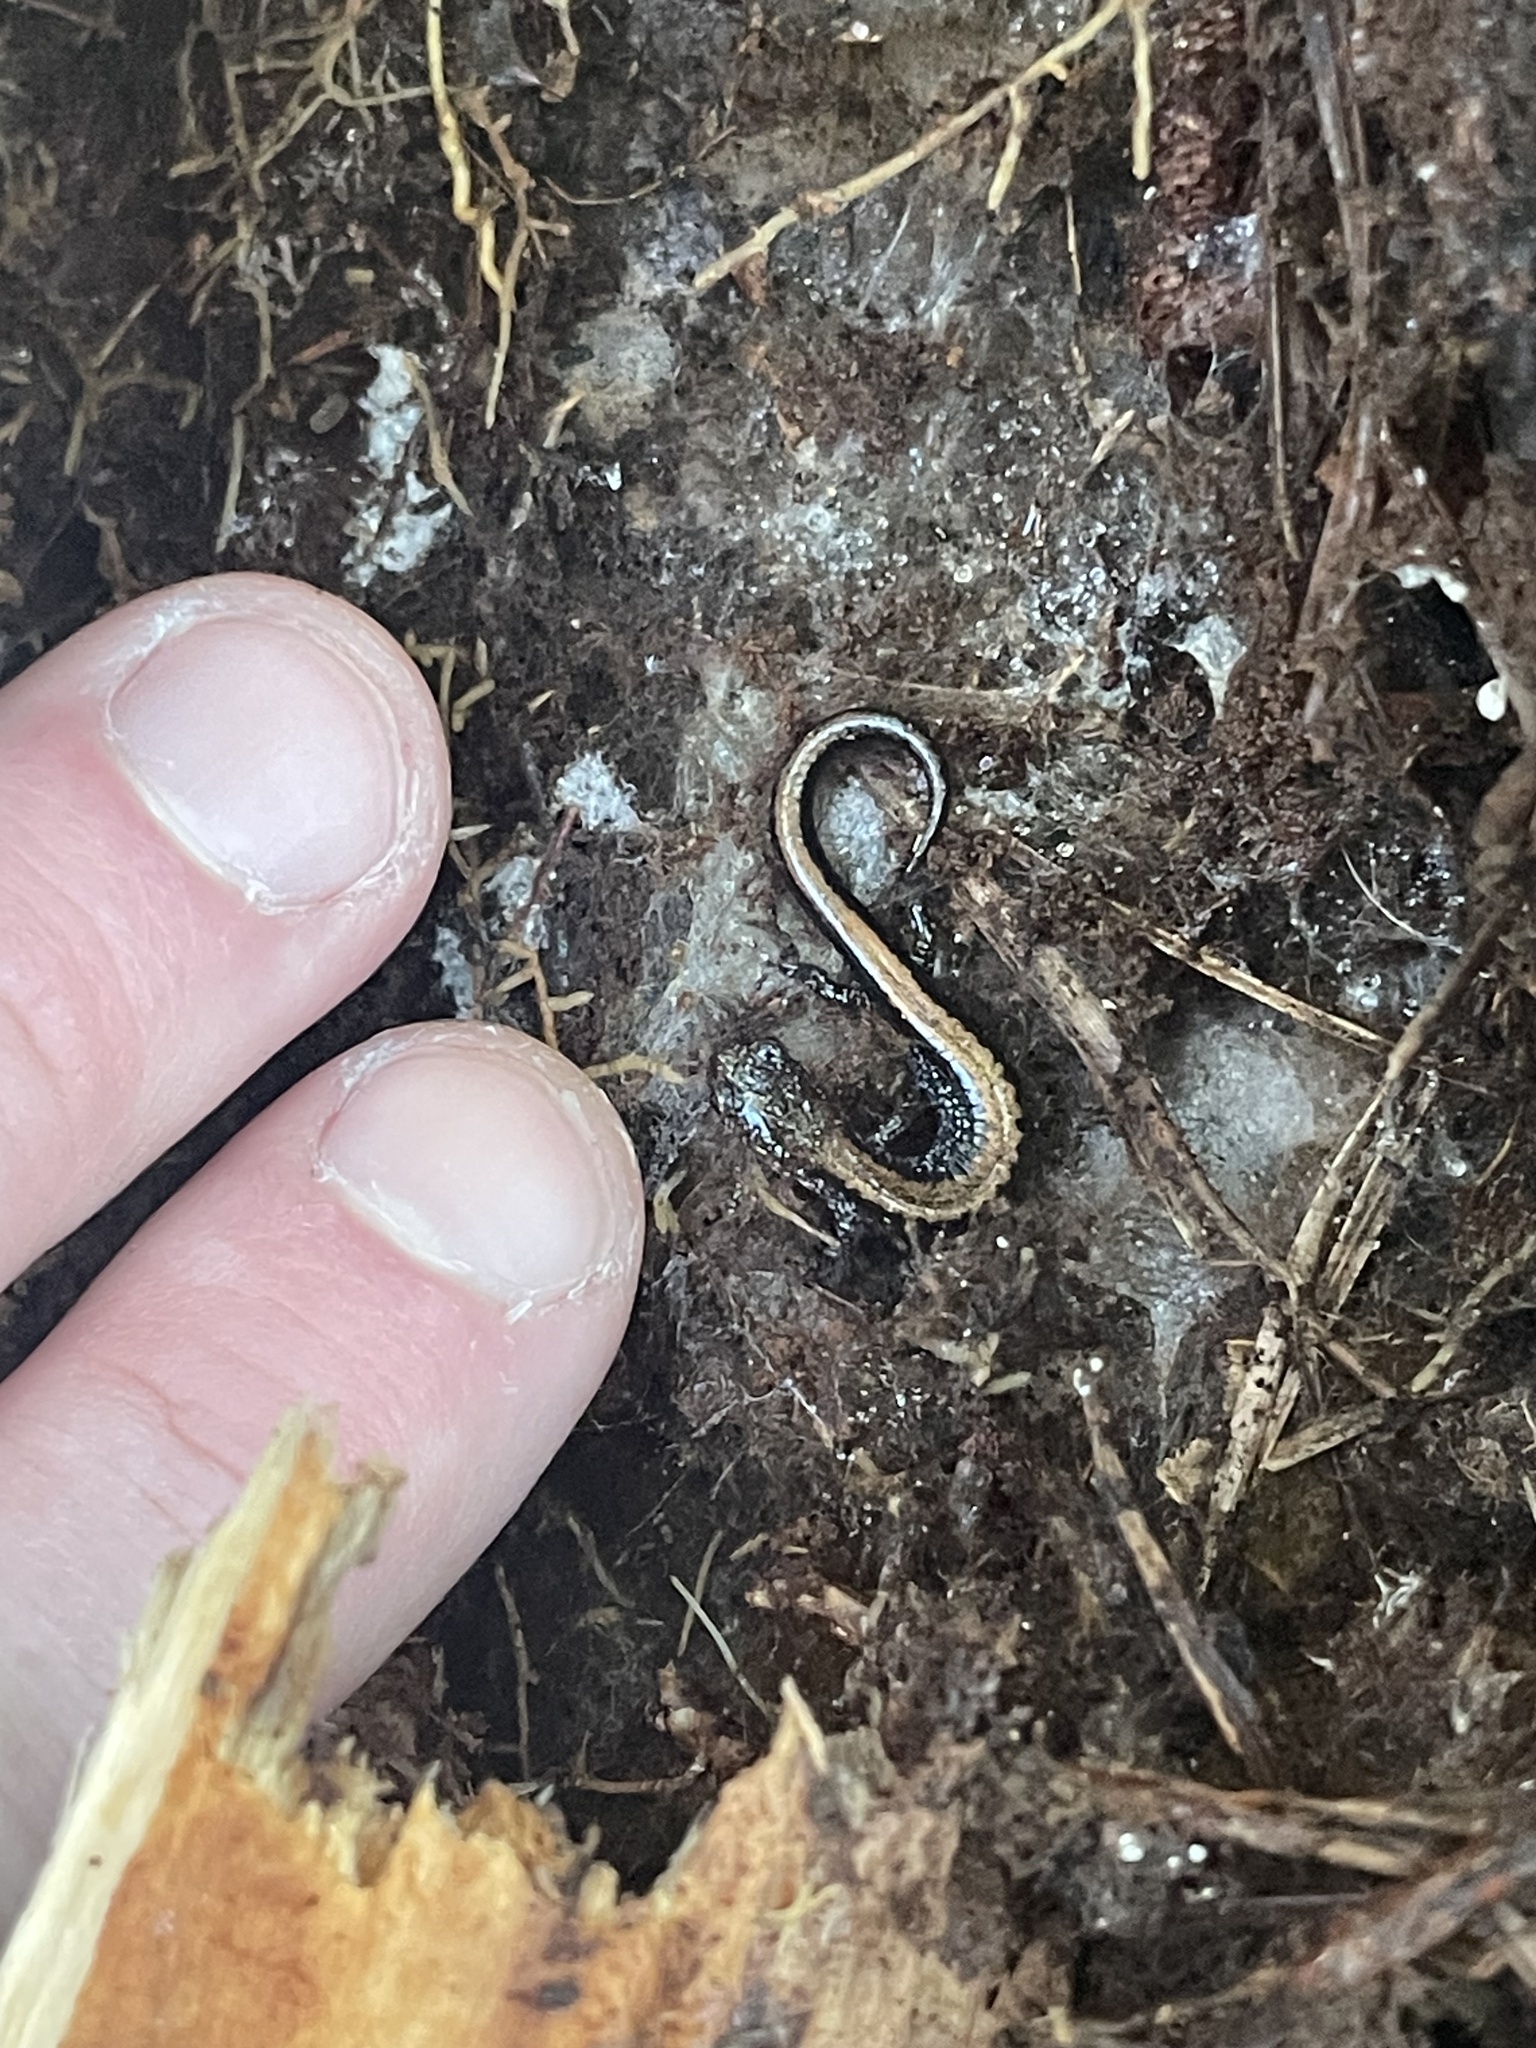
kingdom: Animalia
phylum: Chordata
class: Amphibia
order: Caudata
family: Plethodontidae
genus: Plethodon
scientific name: Plethodon cinereus
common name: Redback salamander
